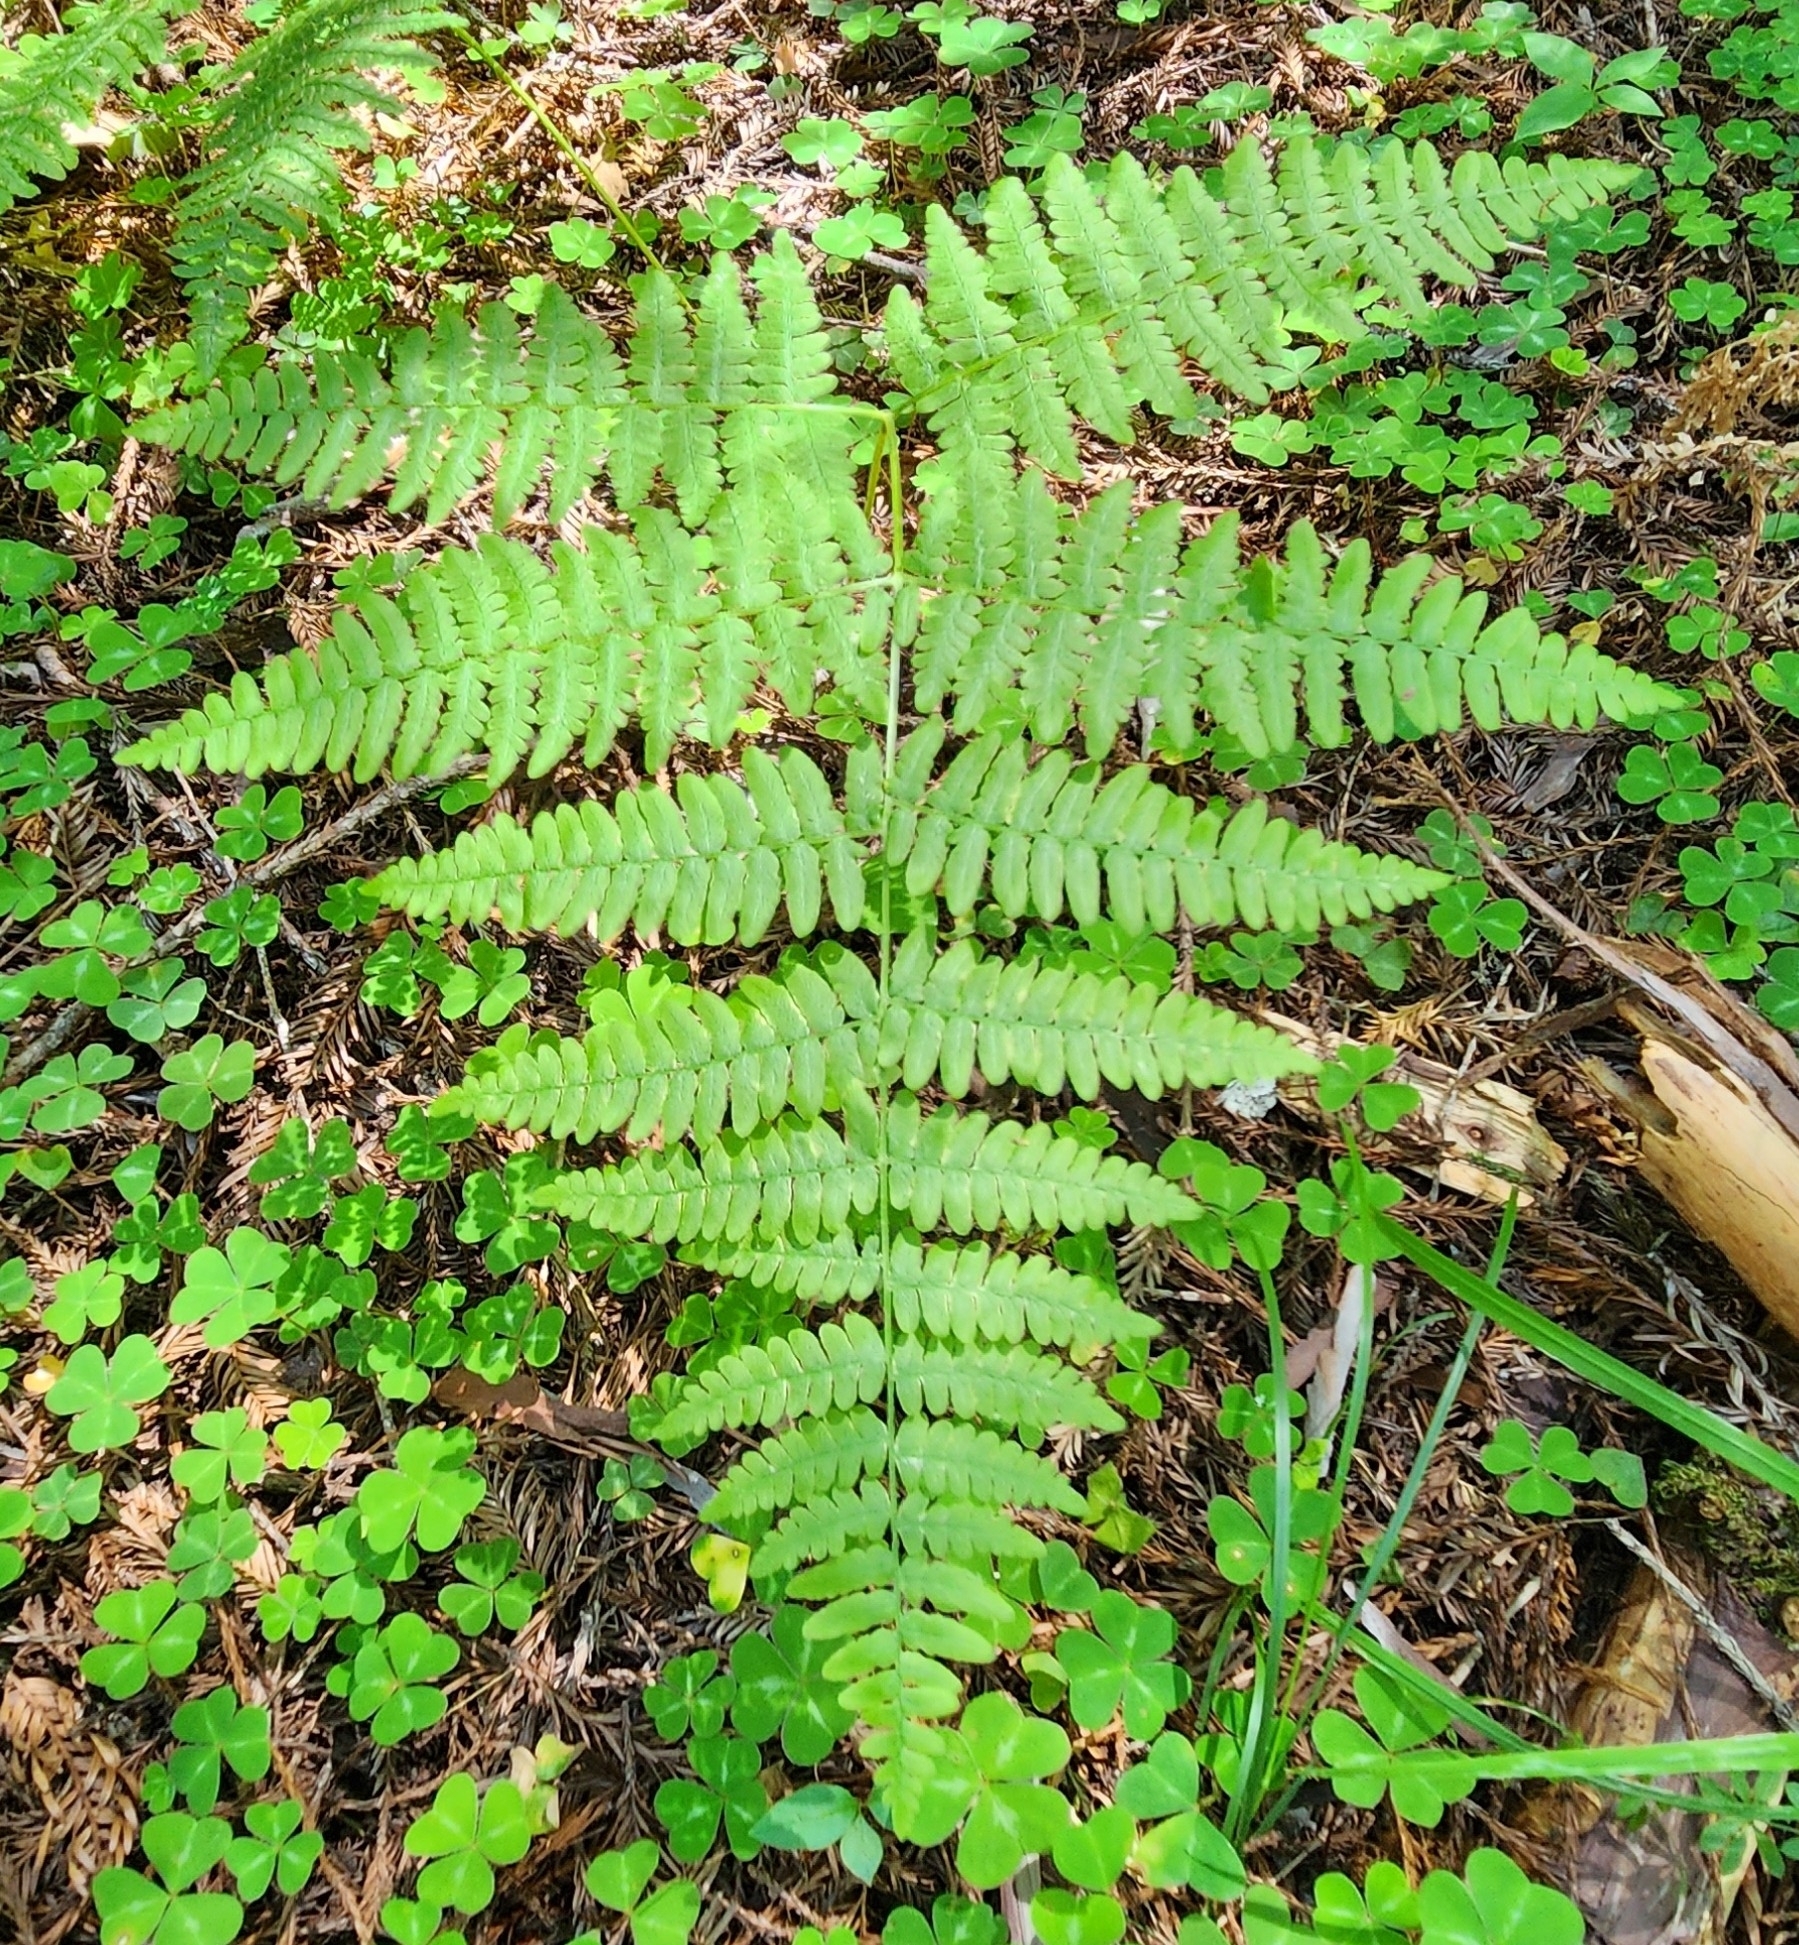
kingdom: Plantae
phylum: Tracheophyta
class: Polypodiopsida
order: Polypodiales
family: Dennstaedtiaceae
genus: Pteridium
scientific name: Pteridium aquilinum
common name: Bracken
